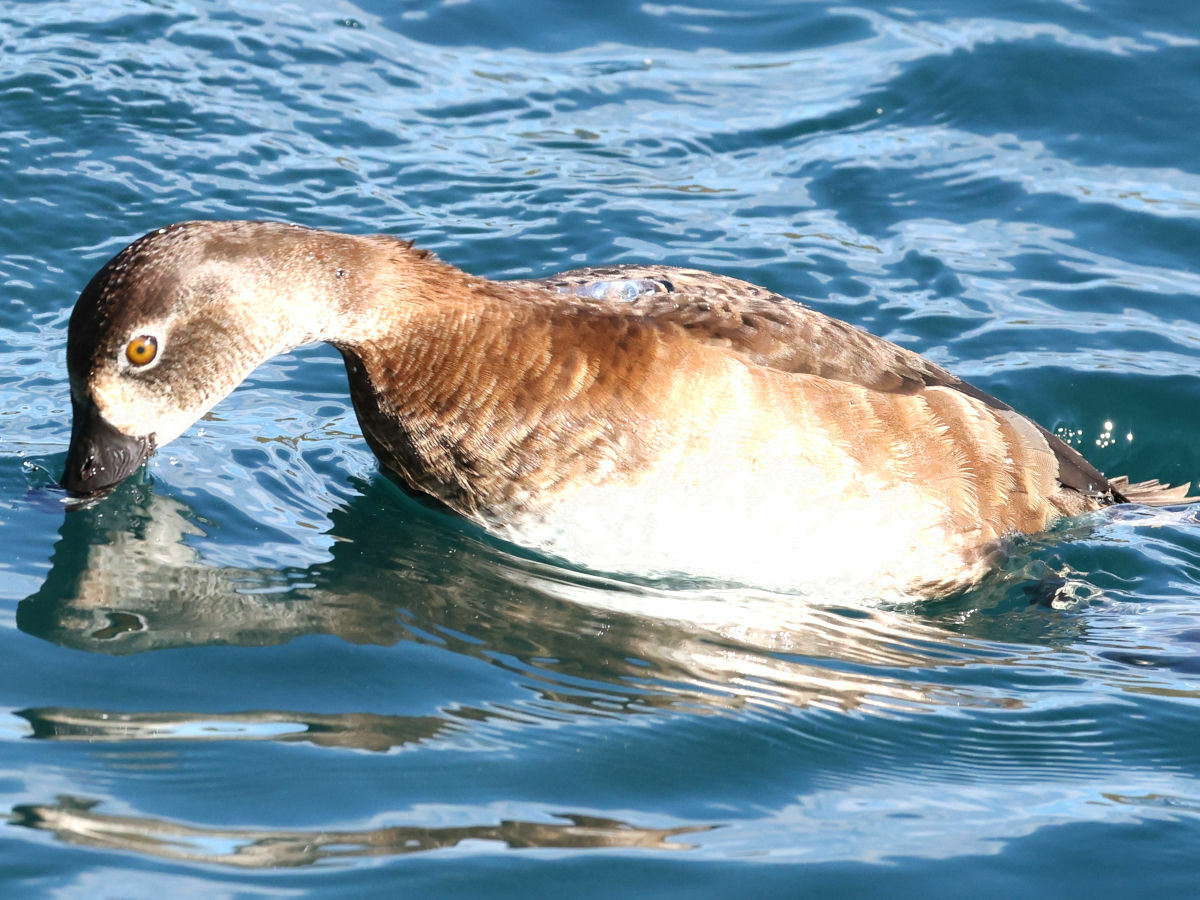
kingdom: Animalia
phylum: Chordata
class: Aves
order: Anseriformes
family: Anatidae
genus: Aythya
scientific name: Aythya collaris
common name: Ring-necked duck
